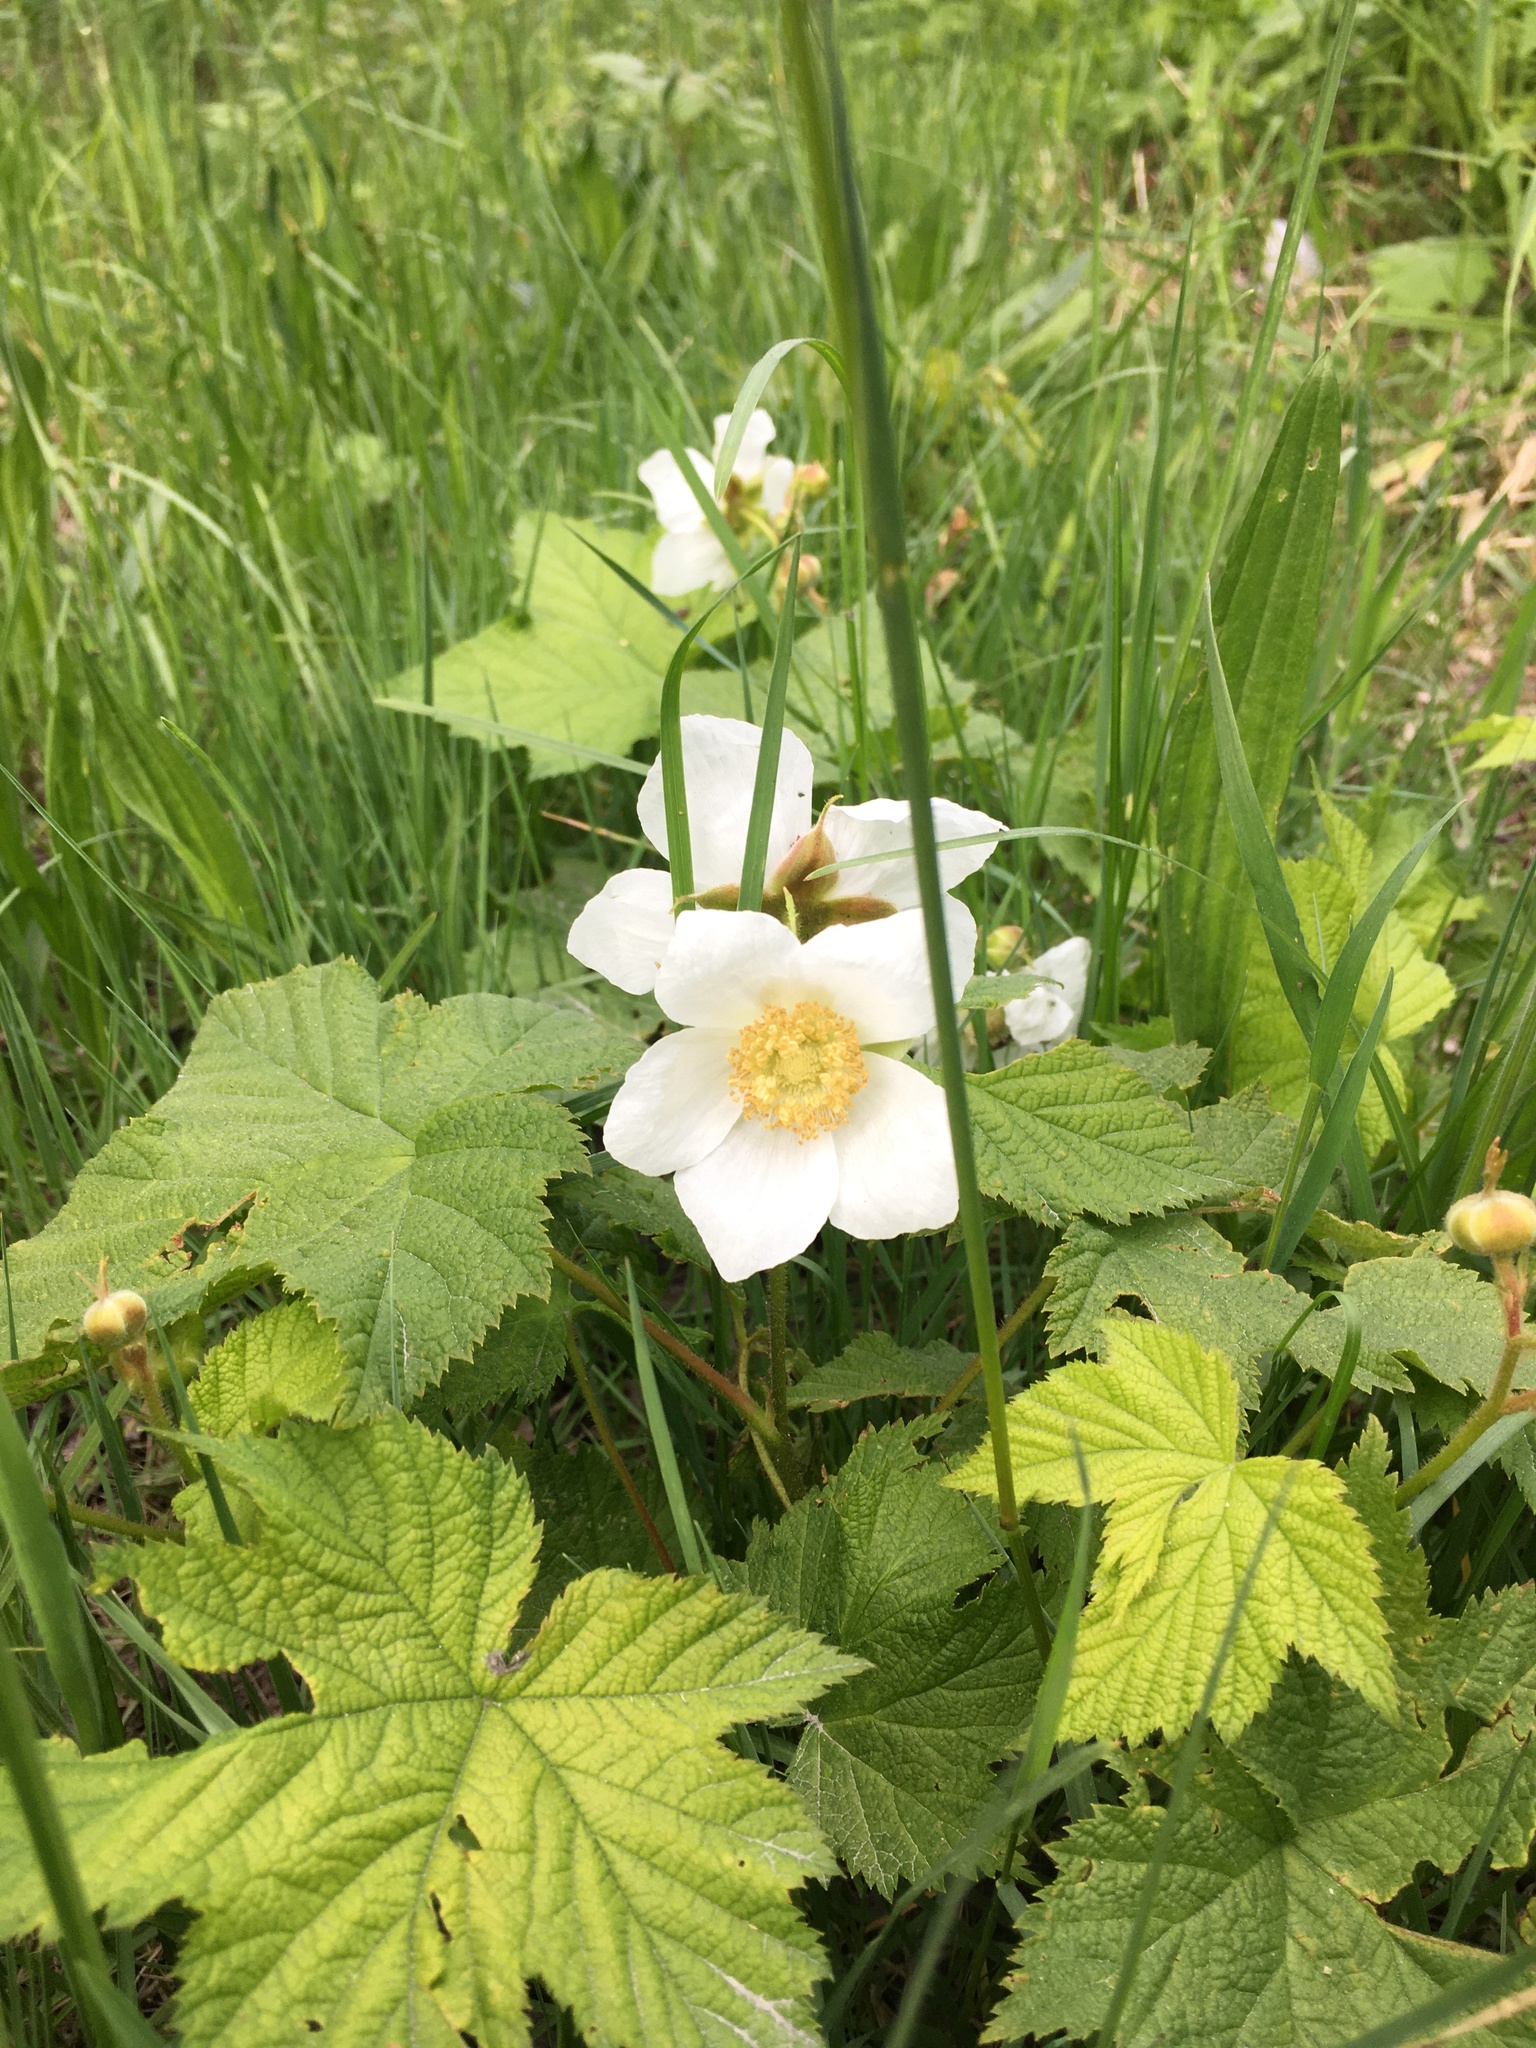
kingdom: Plantae
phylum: Tracheophyta
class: Magnoliopsida
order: Rosales
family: Rosaceae
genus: Rubus
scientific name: Rubus parviflorus
